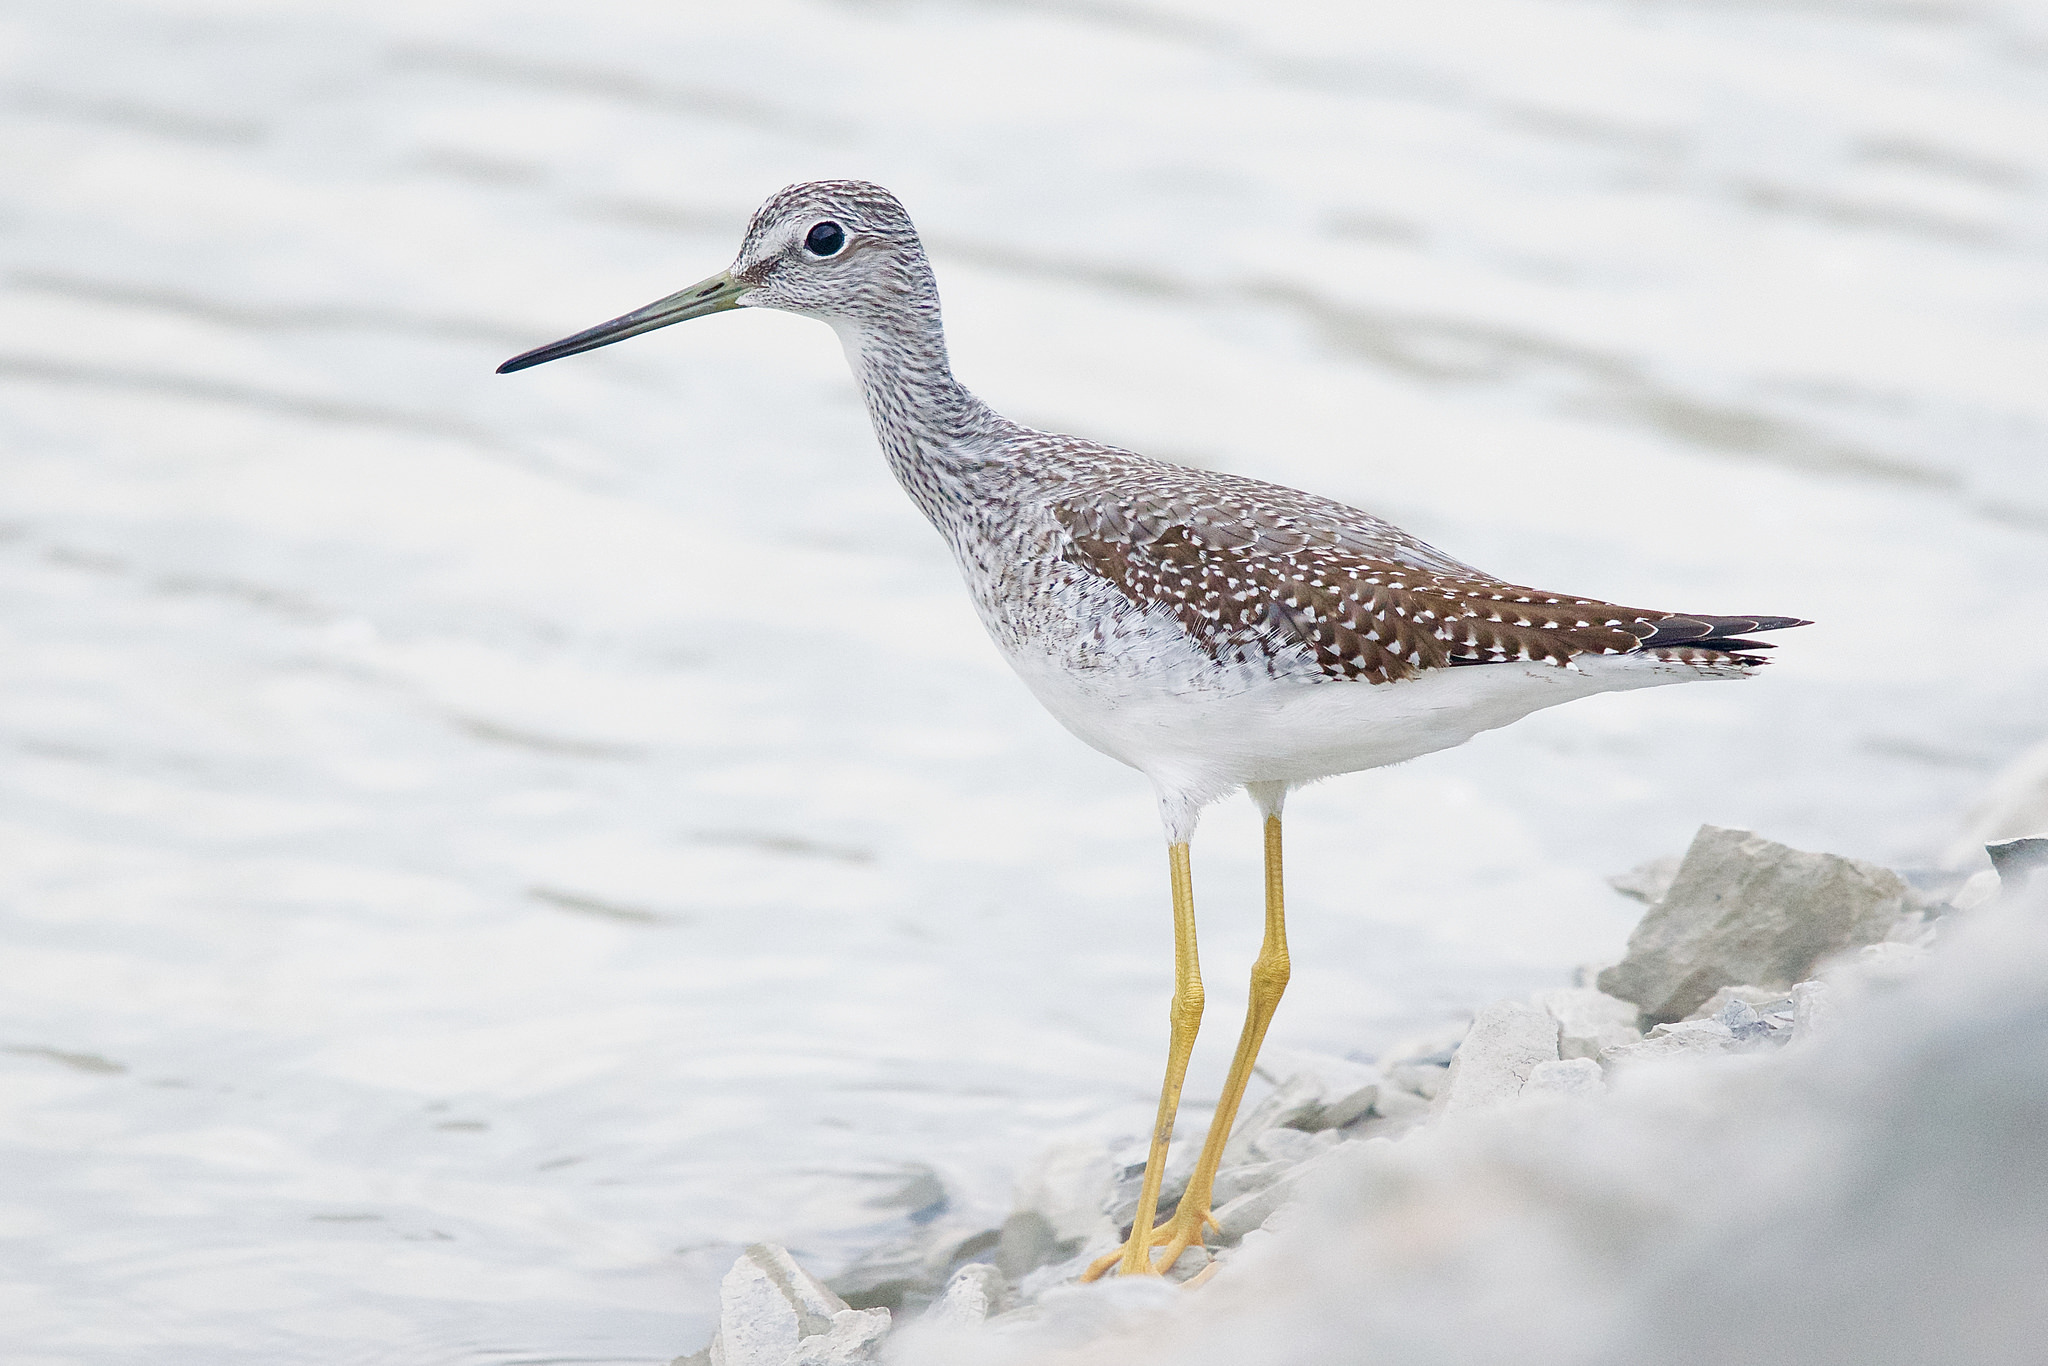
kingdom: Animalia
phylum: Chordata
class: Aves
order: Charadriiformes
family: Scolopacidae
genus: Tringa
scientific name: Tringa melanoleuca
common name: Greater yellowlegs
